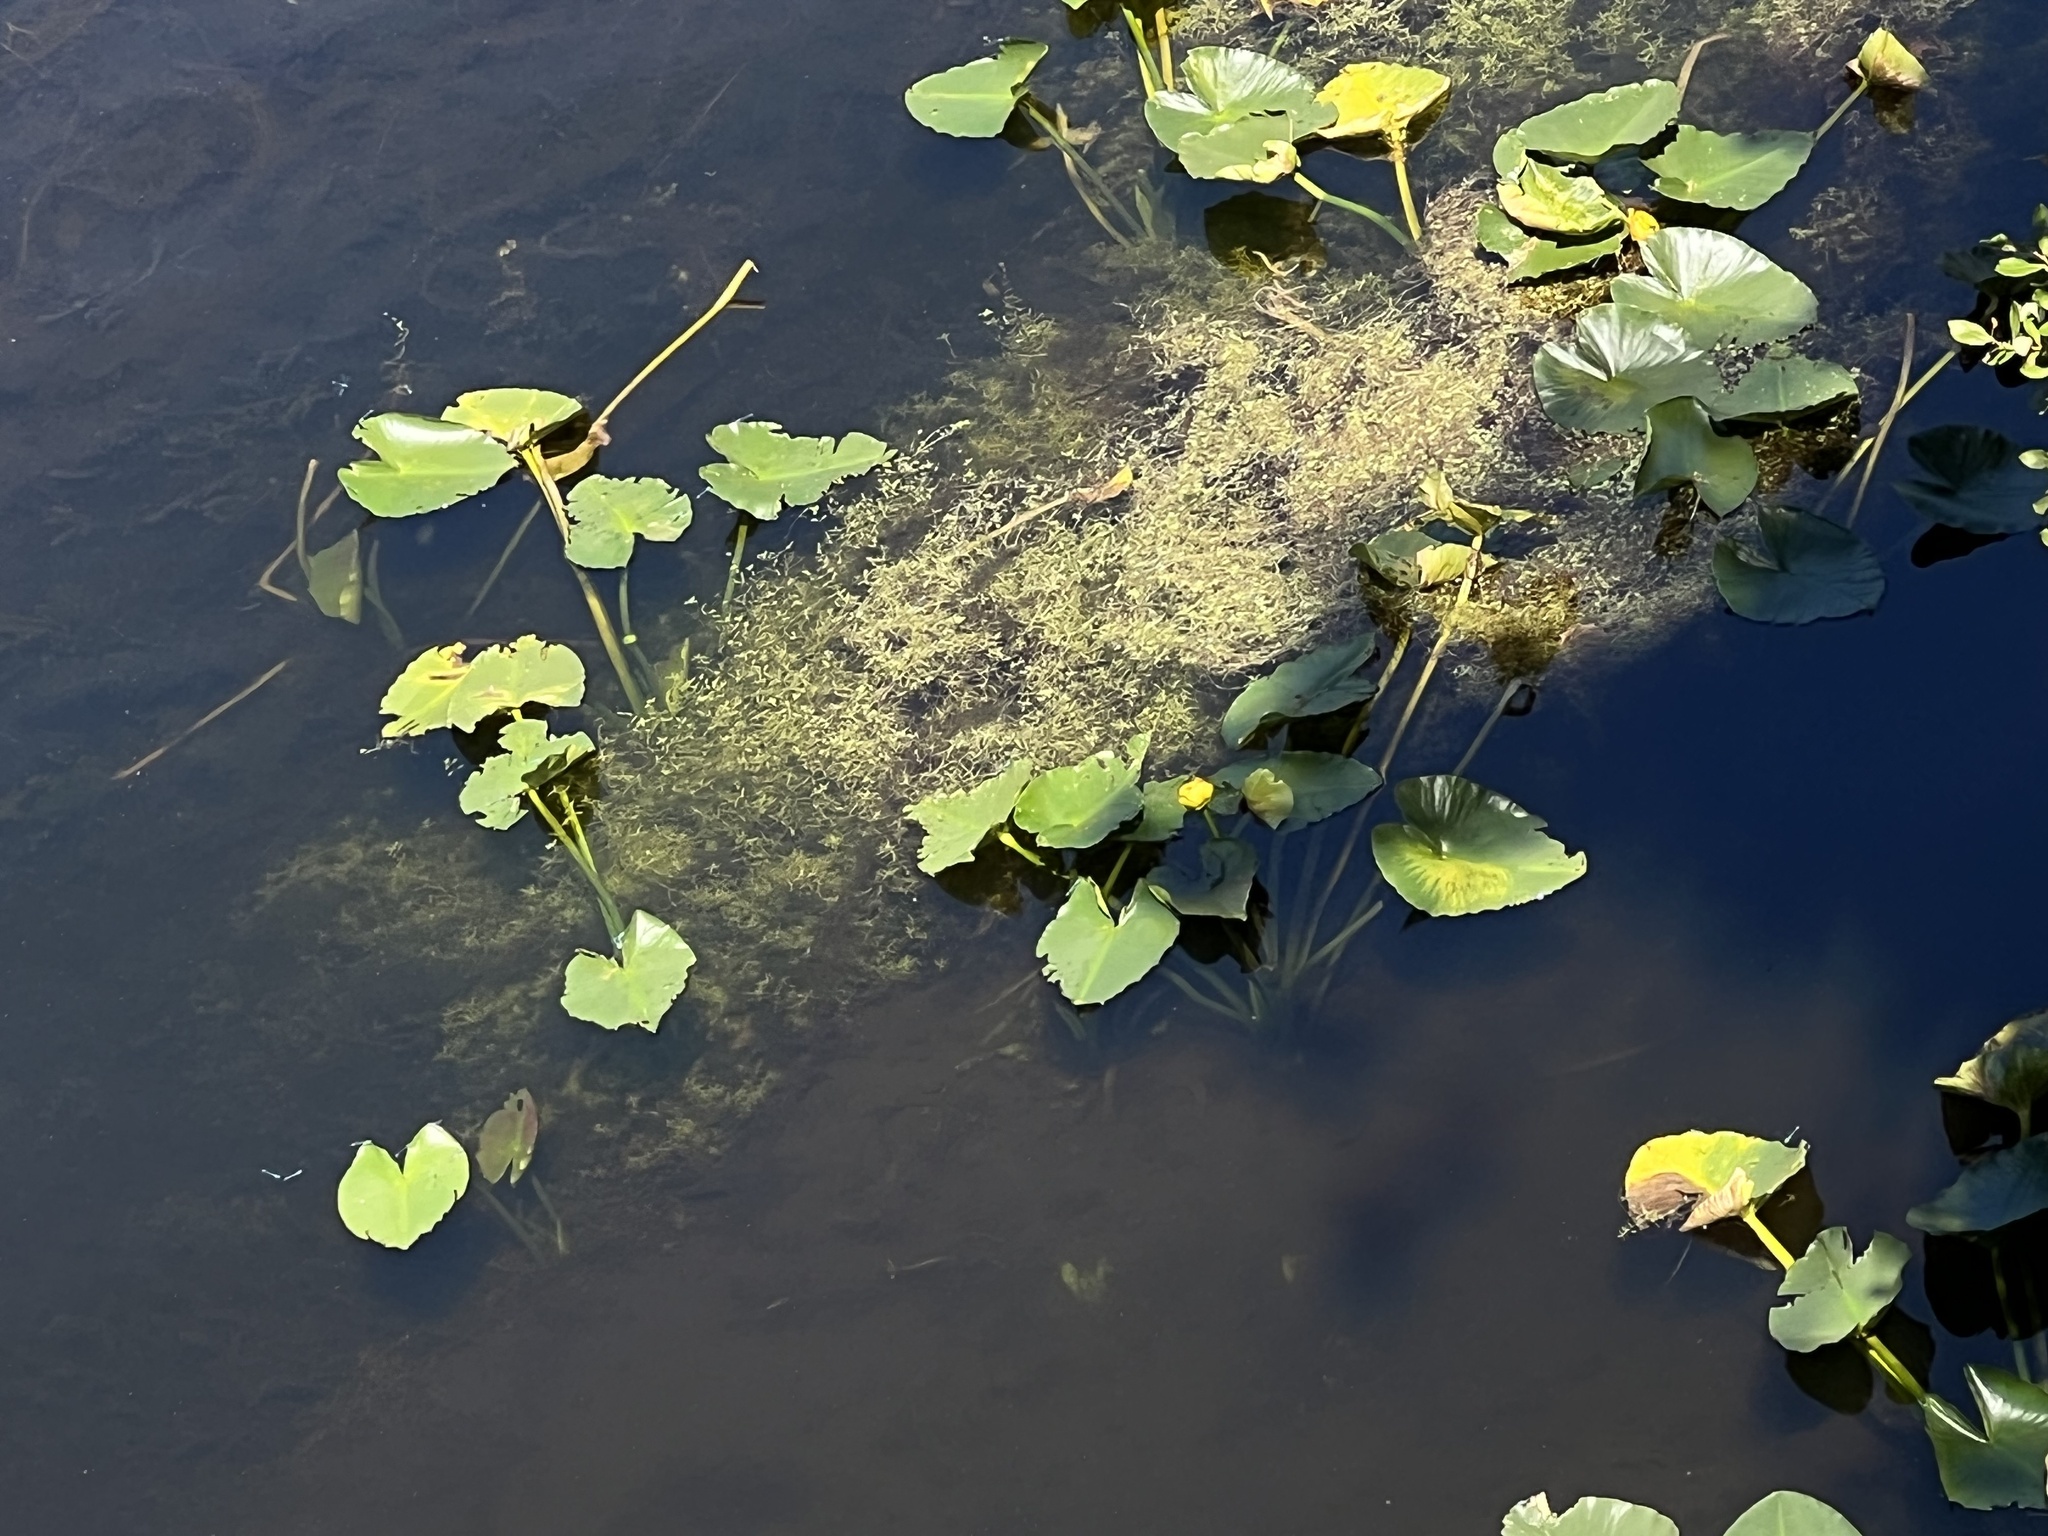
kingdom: Plantae
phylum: Tracheophyta
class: Magnoliopsida
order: Nymphaeales
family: Nymphaeaceae
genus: Nuphar
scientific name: Nuphar polysepala
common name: Rocky mountain cow-lily
